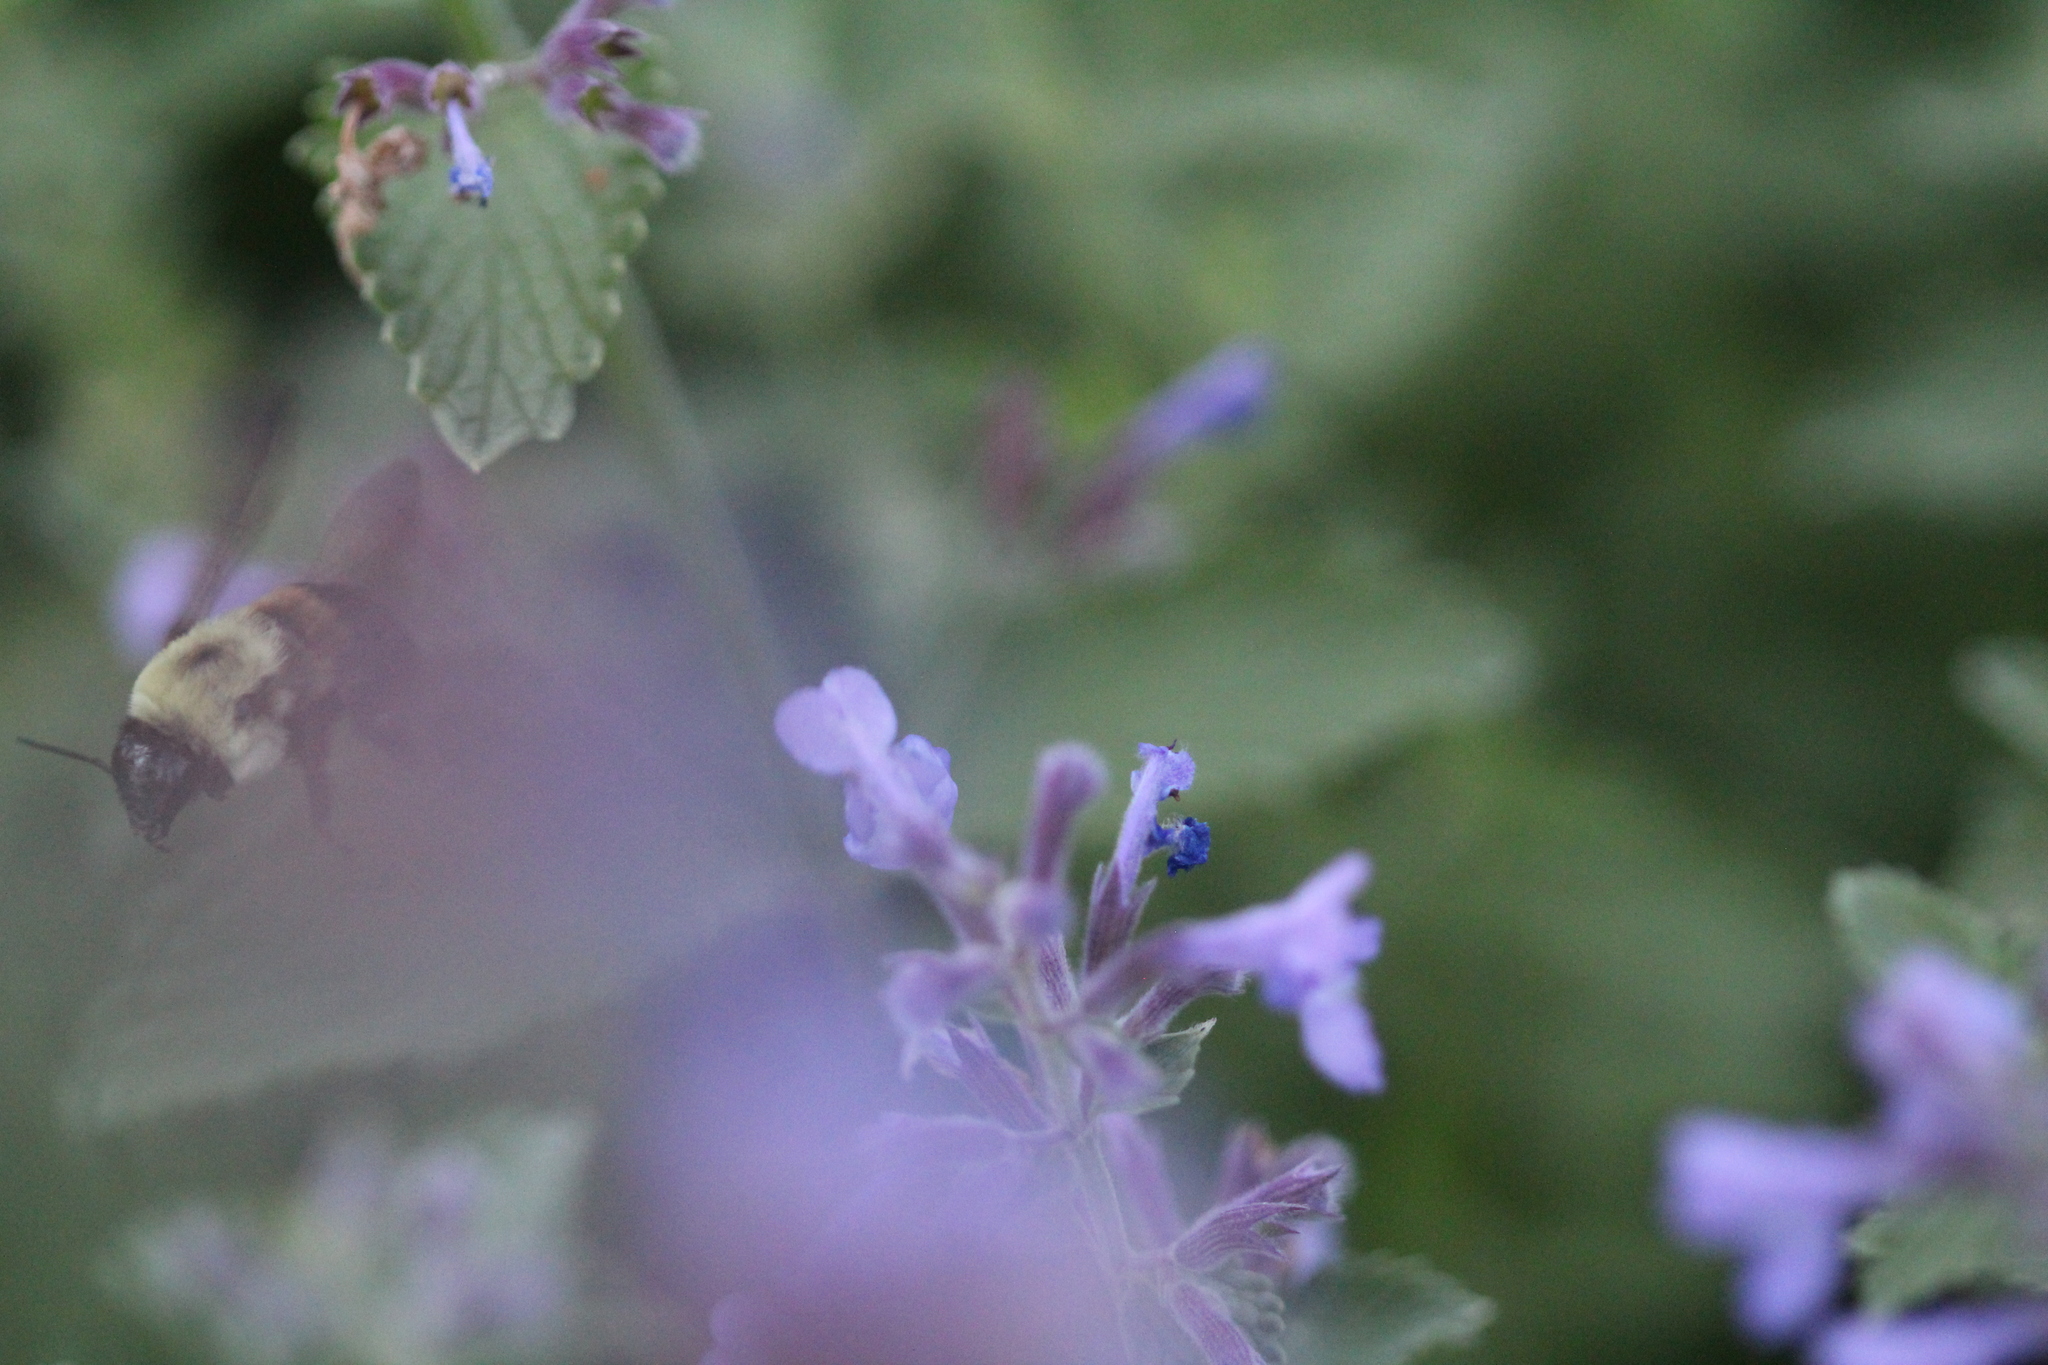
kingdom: Animalia
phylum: Arthropoda
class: Insecta
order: Hymenoptera
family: Apidae
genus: Bombus
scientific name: Bombus griseocollis
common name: Brown-belted bumble bee
